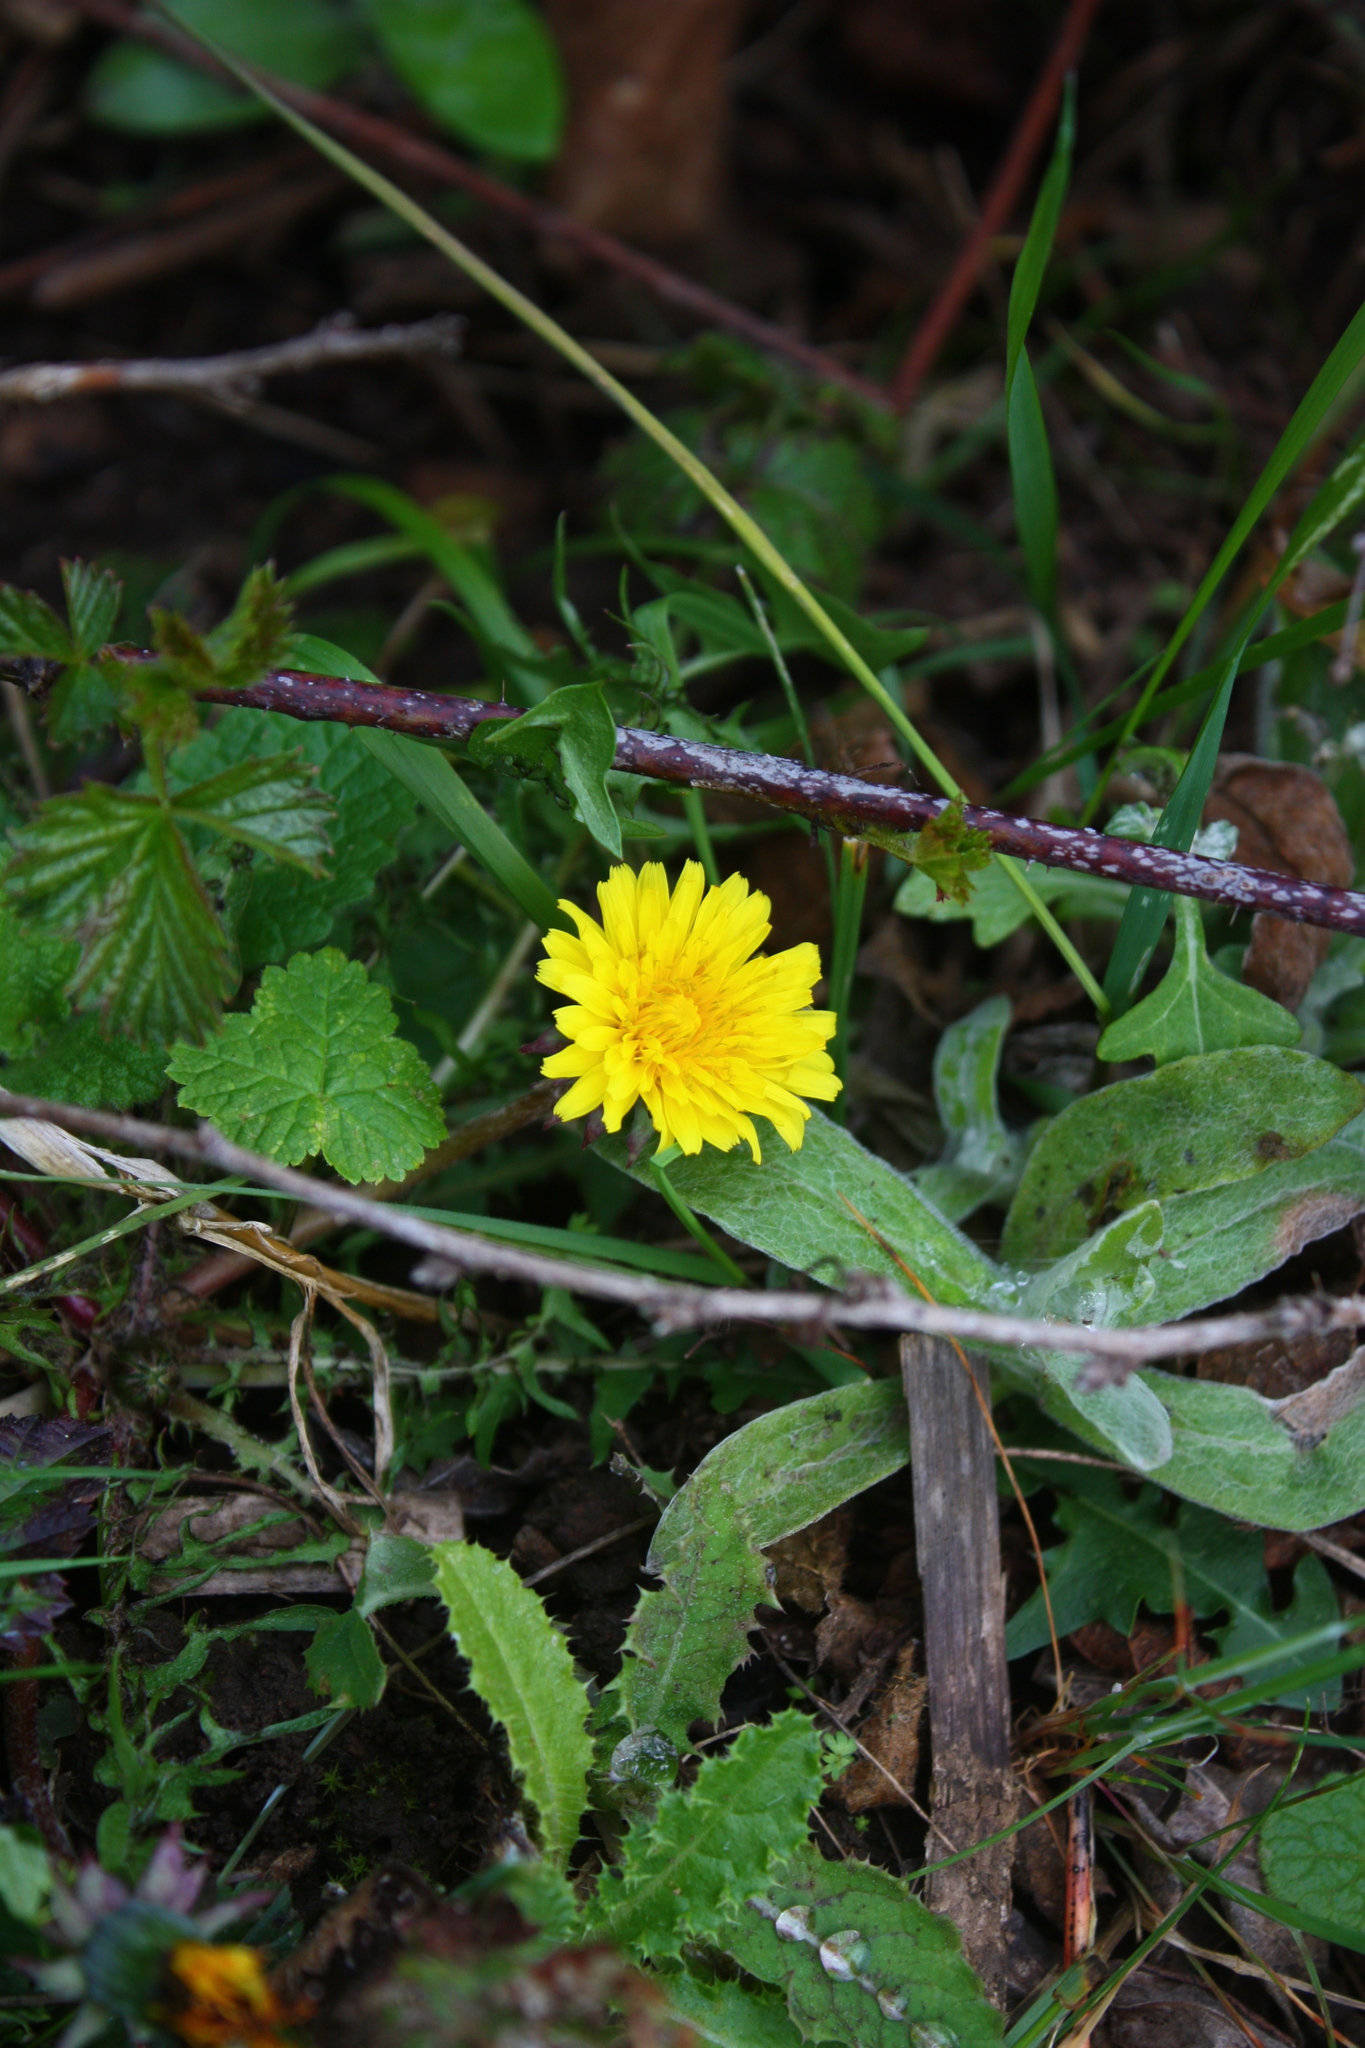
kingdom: Plantae
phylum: Tracheophyta
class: Magnoliopsida
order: Asterales
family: Asteraceae
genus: Taraxacum
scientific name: Taraxacum
